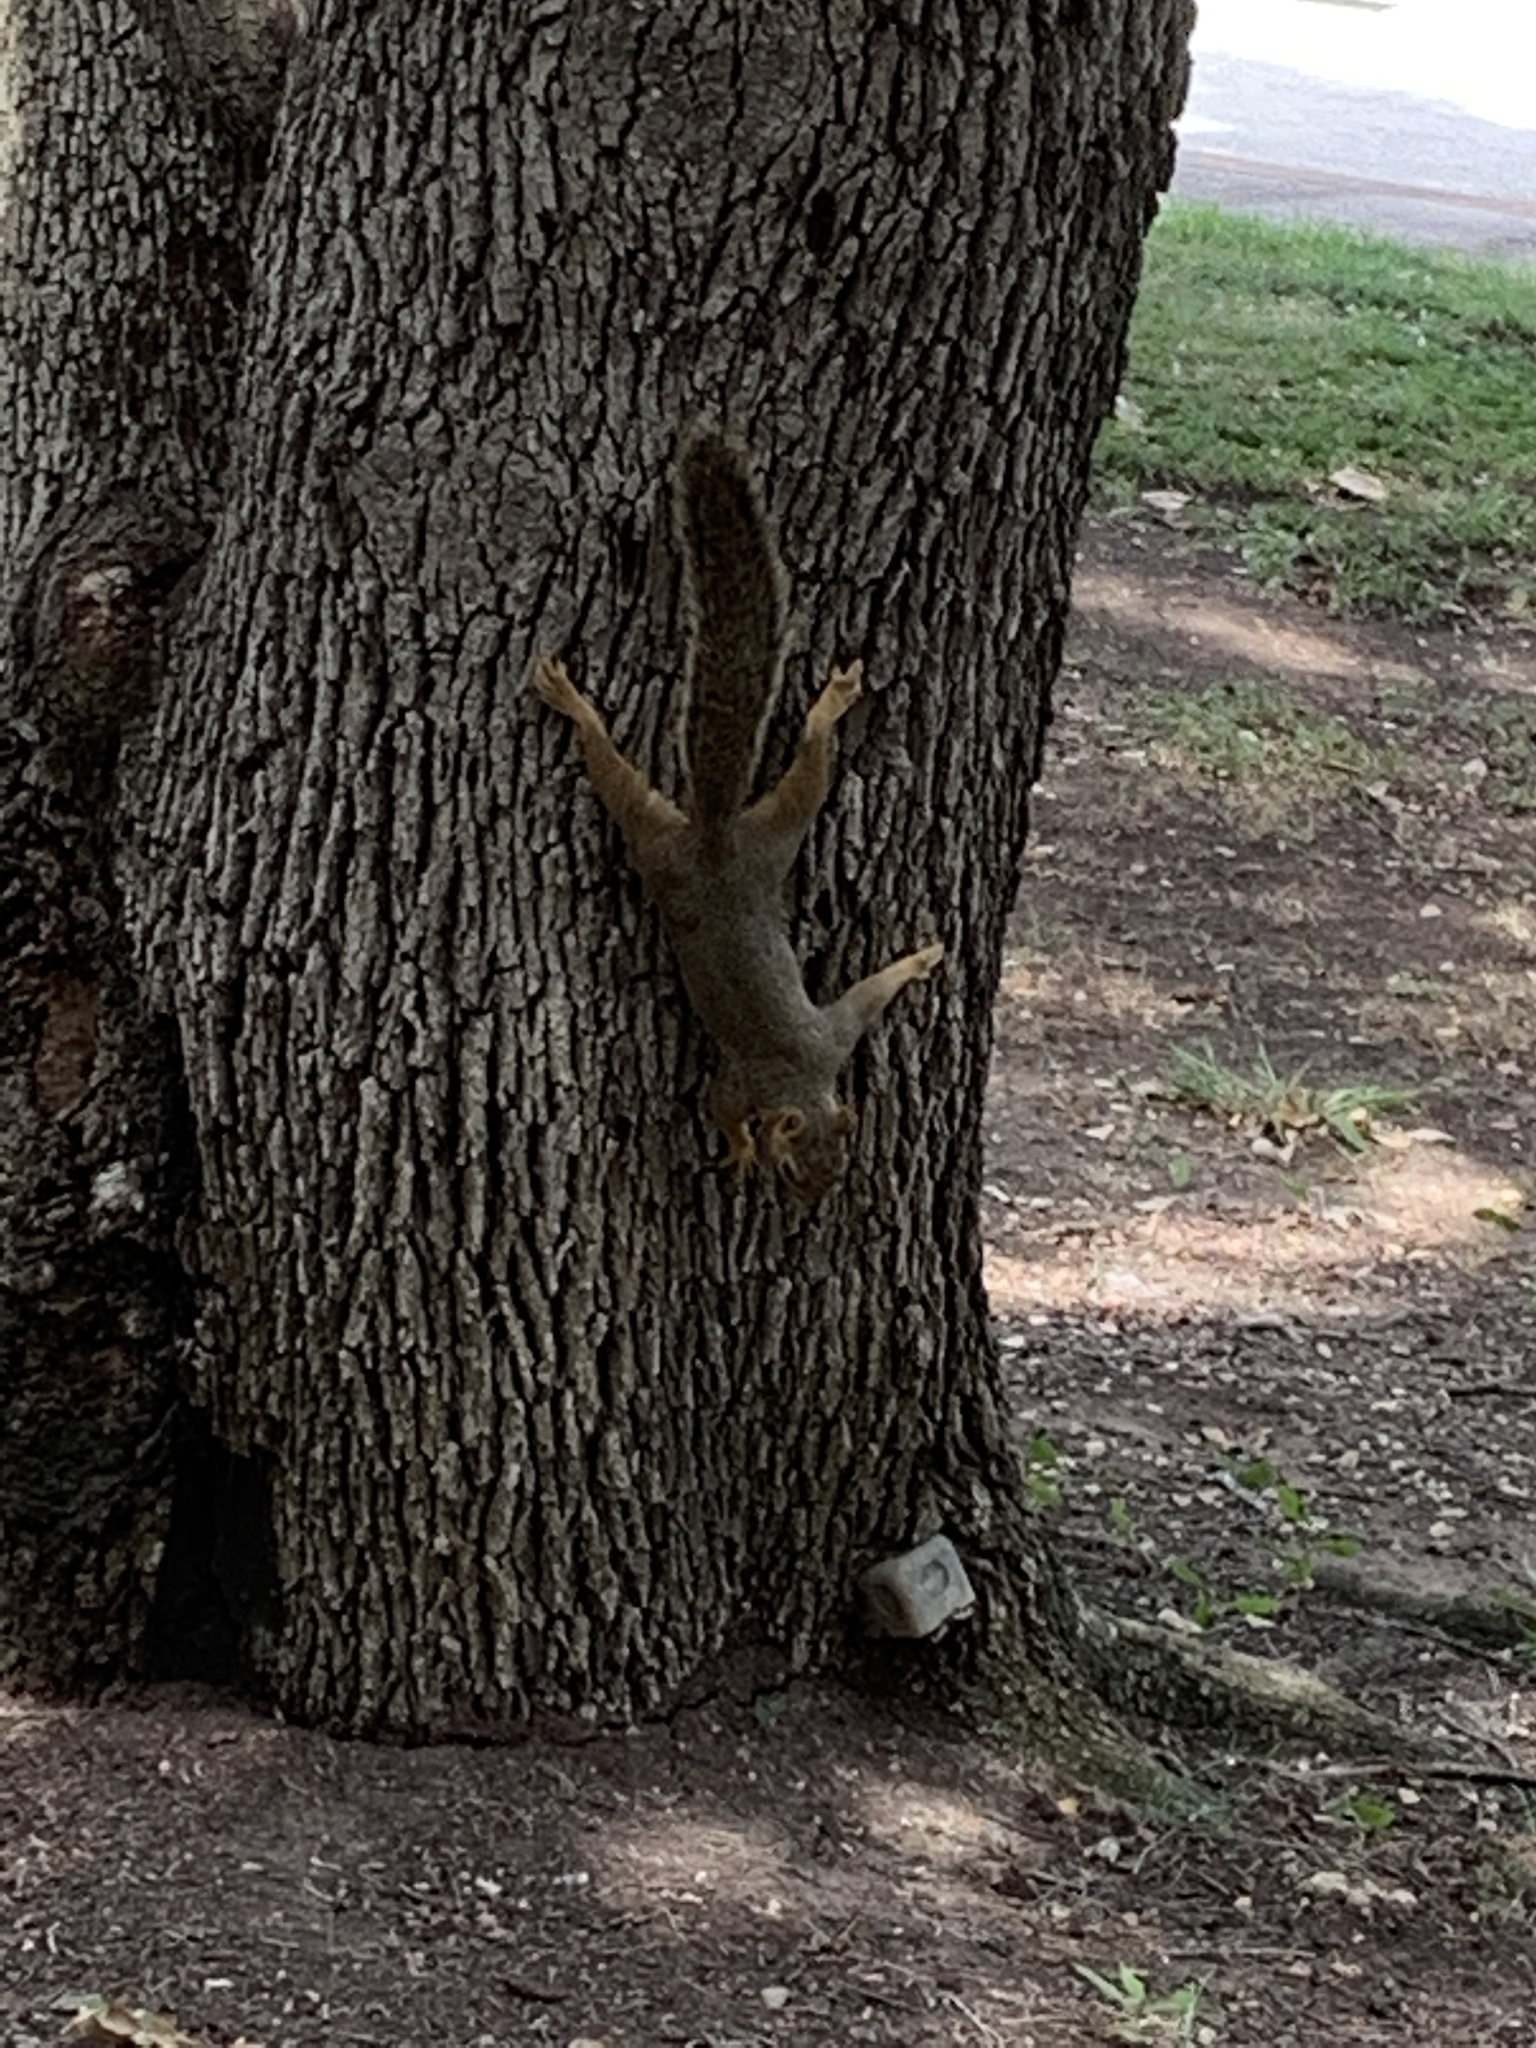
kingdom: Animalia
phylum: Chordata
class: Mammalia
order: Rodentia
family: Sciuridae
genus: Sciurus
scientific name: Sciurus niger
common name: Fox squirrel
